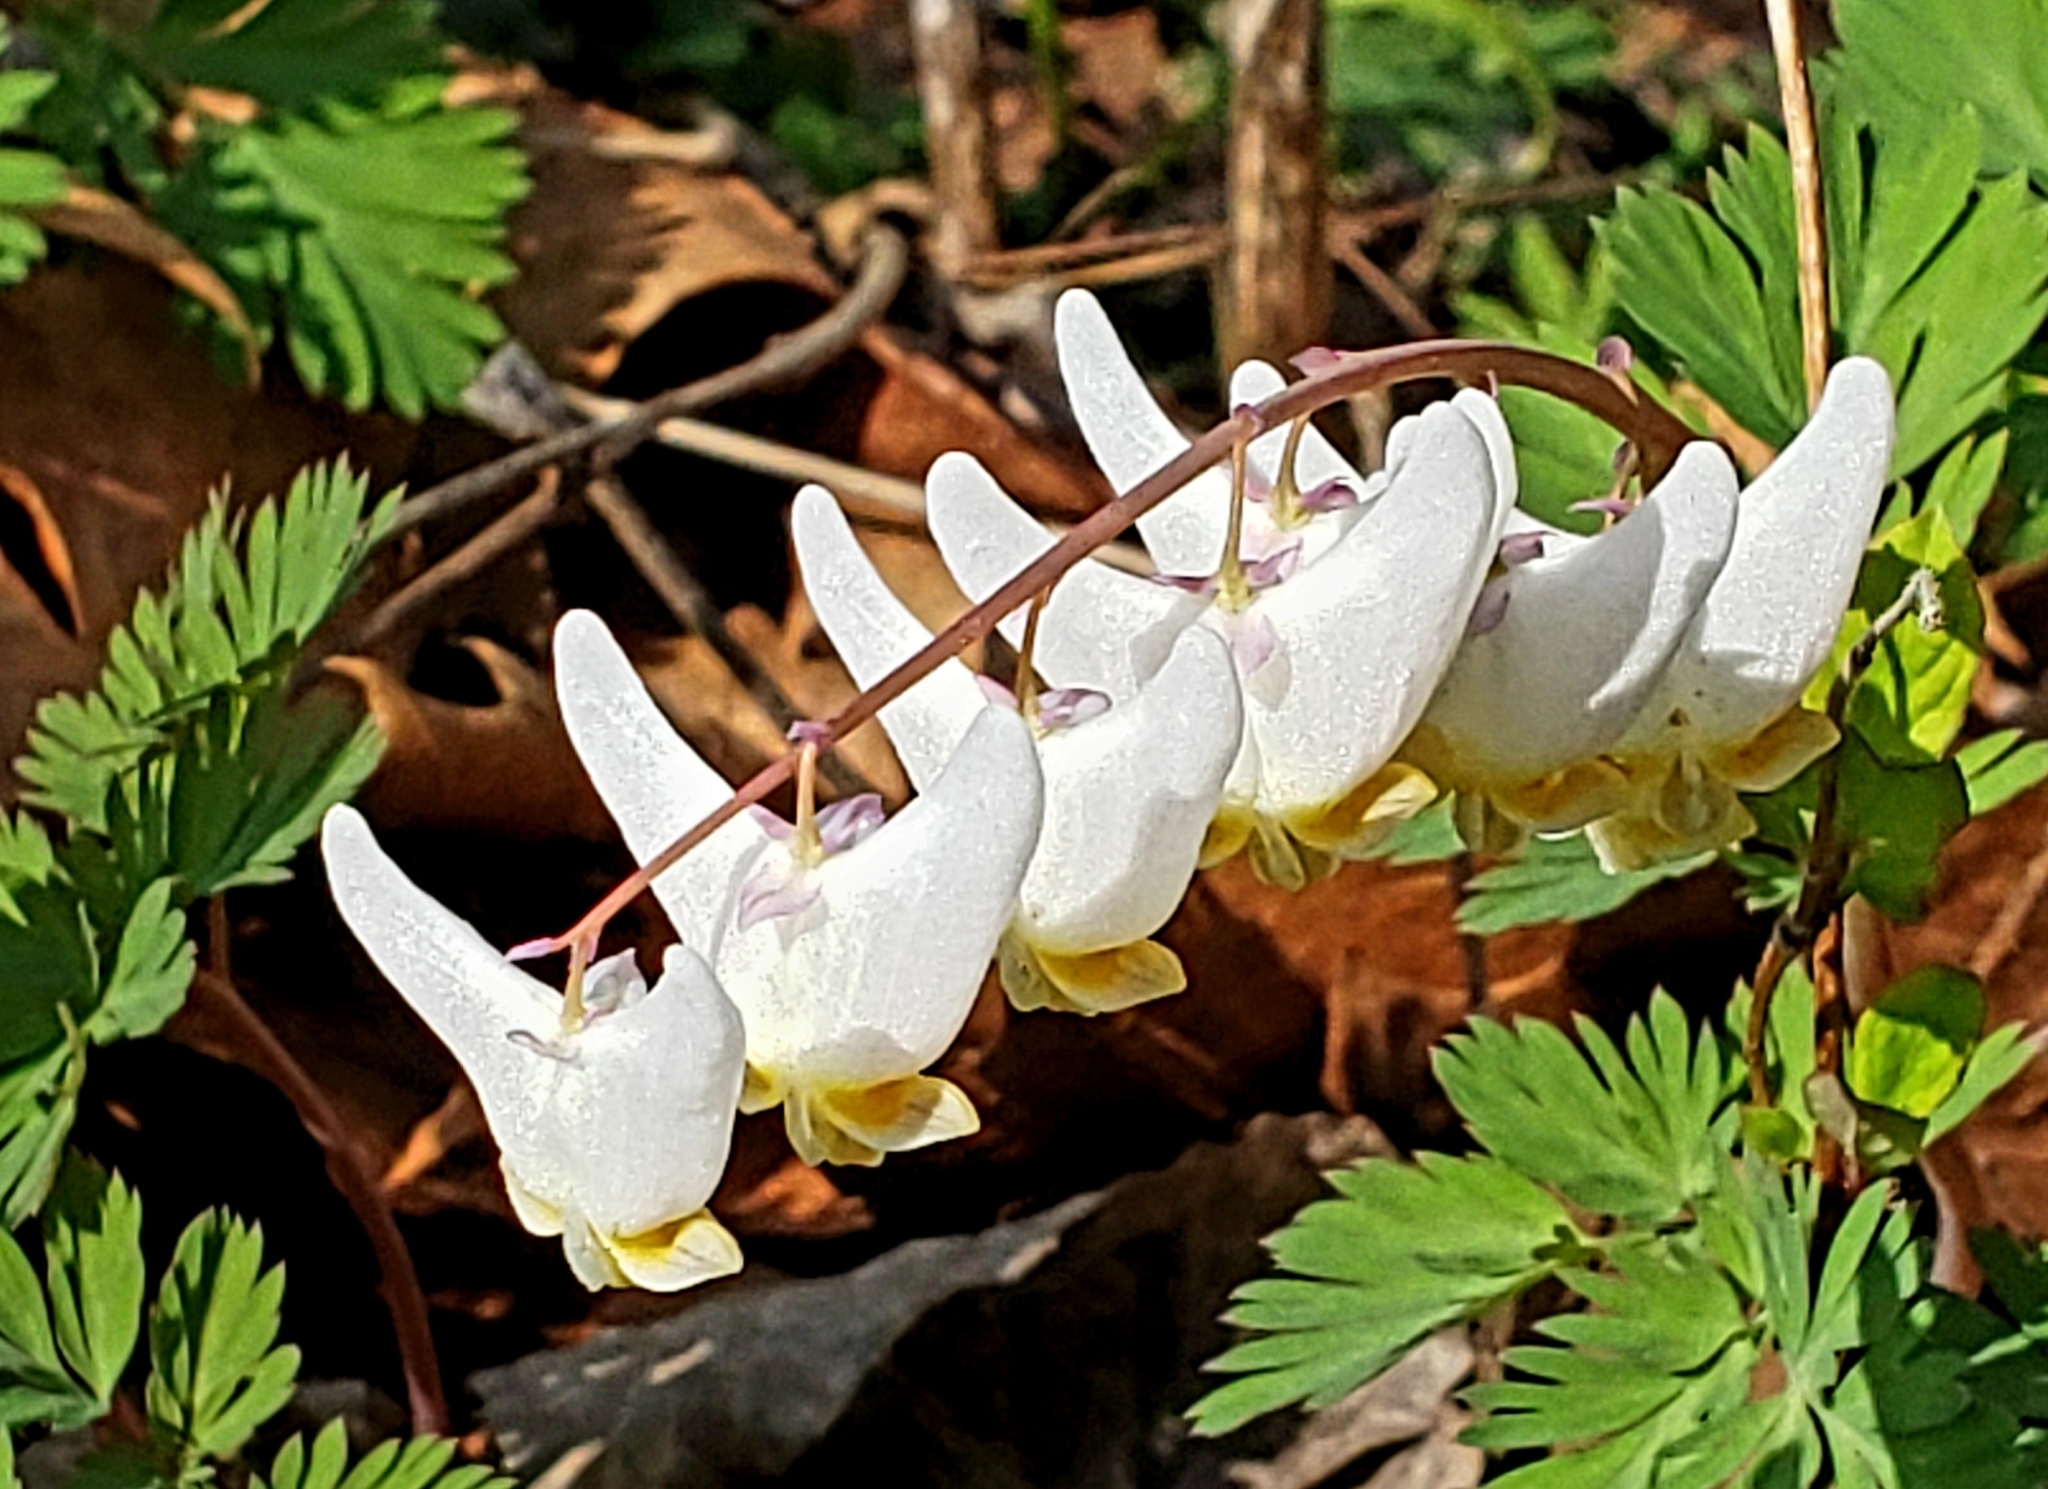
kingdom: Plantae
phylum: Tracheophyta
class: Magnoliopsida
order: Ranunculales
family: Papaveraceae
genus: Dicentra
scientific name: Dicentra cucullaria
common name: Dutchman's breeches
